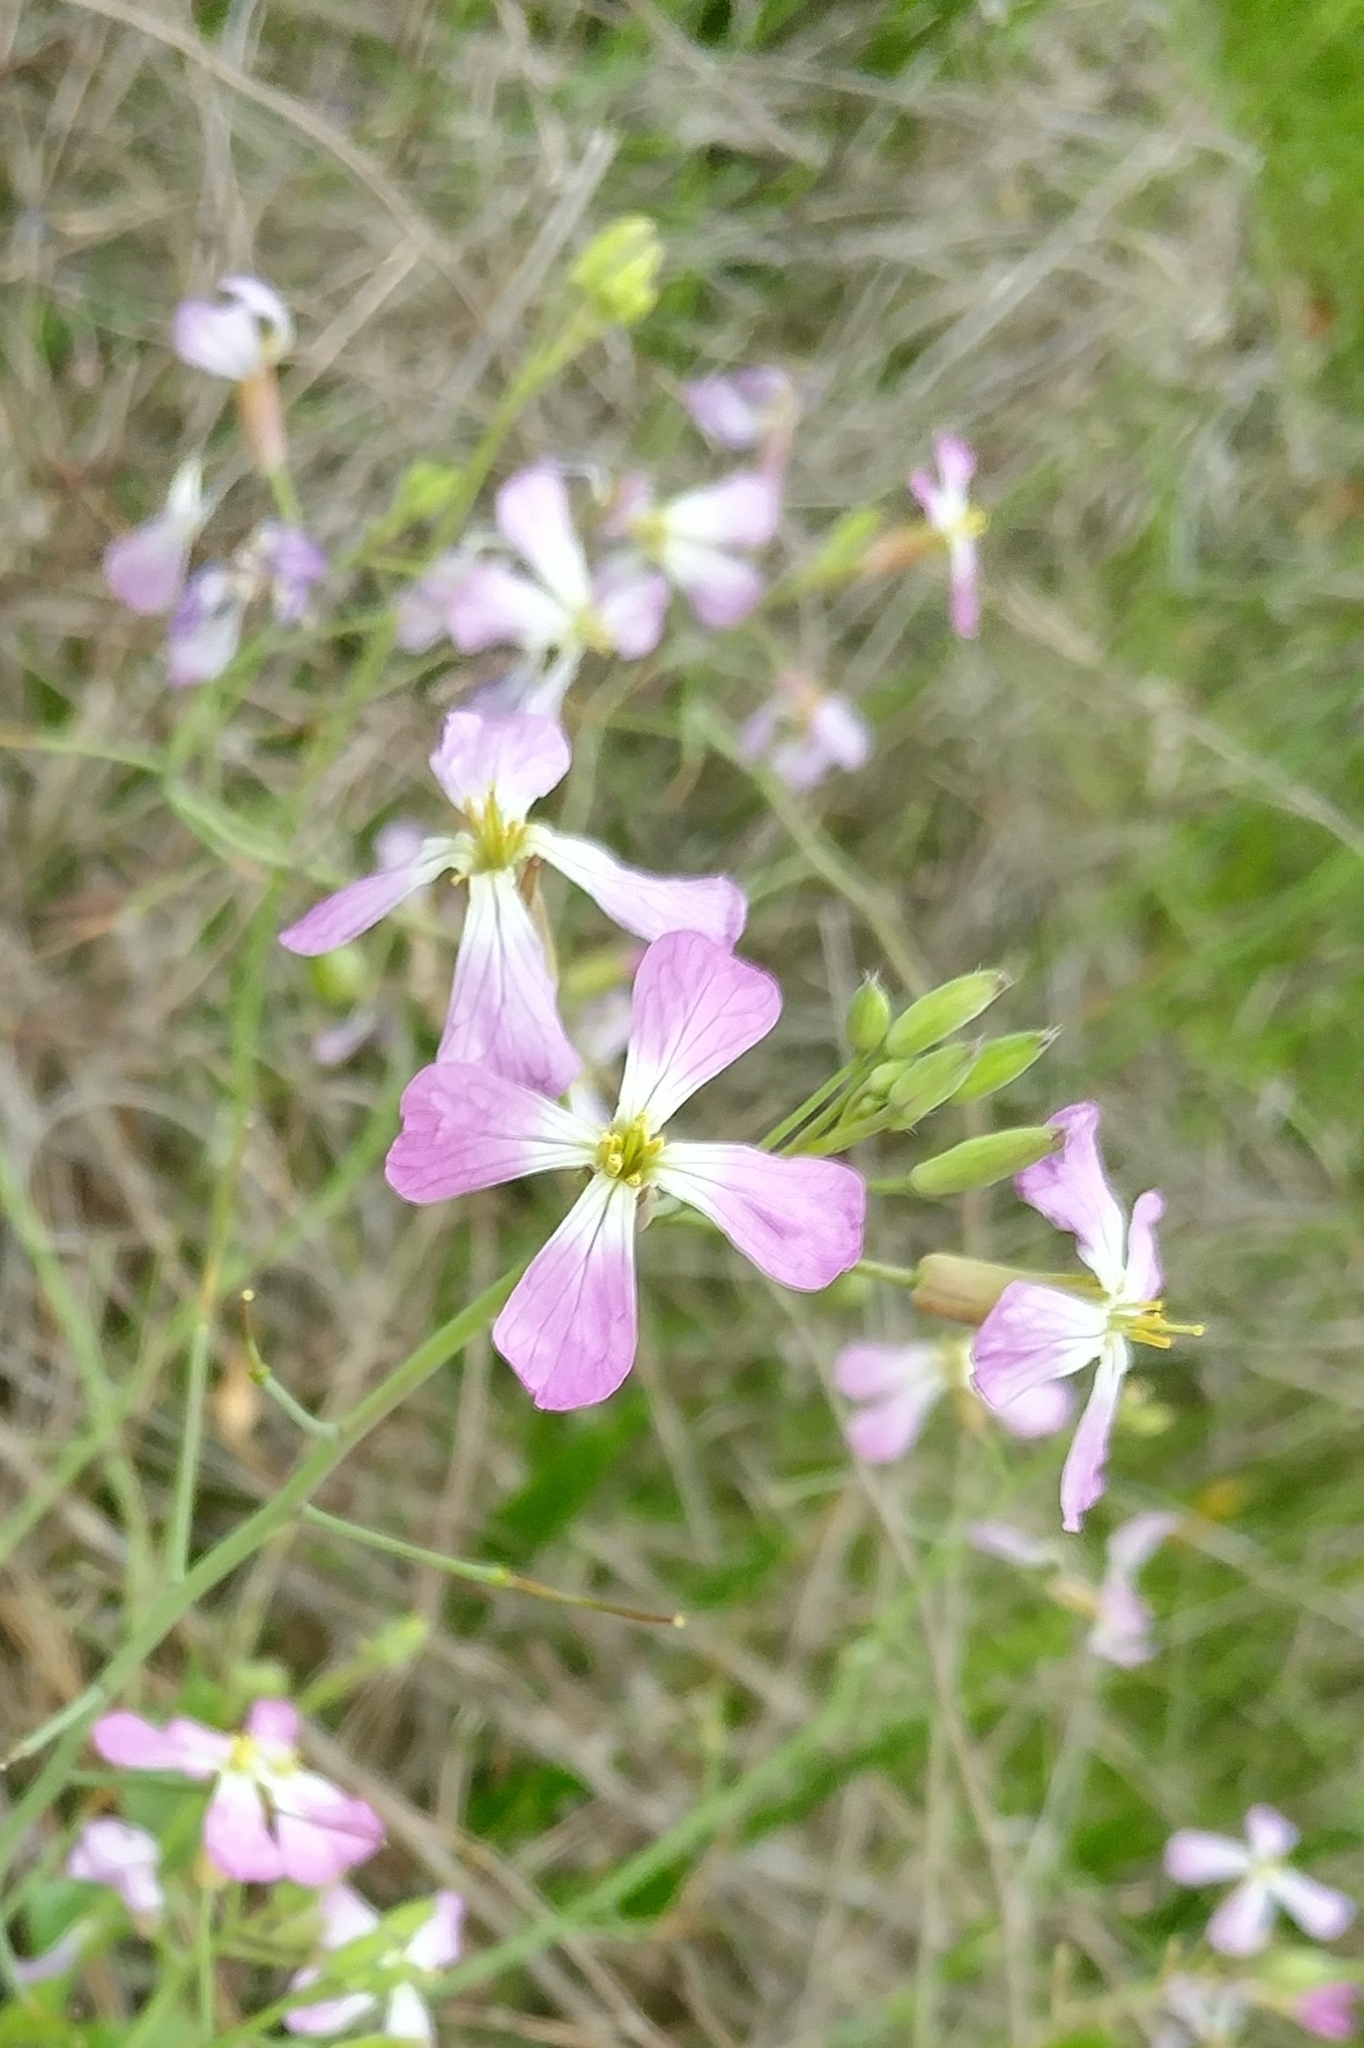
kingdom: Plantae
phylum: Tracheophyta
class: Magnoliopsida
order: Brassicales
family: Brassicaceae
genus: Raphanus
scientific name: Raphanus sativus
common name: Cultivated radish
